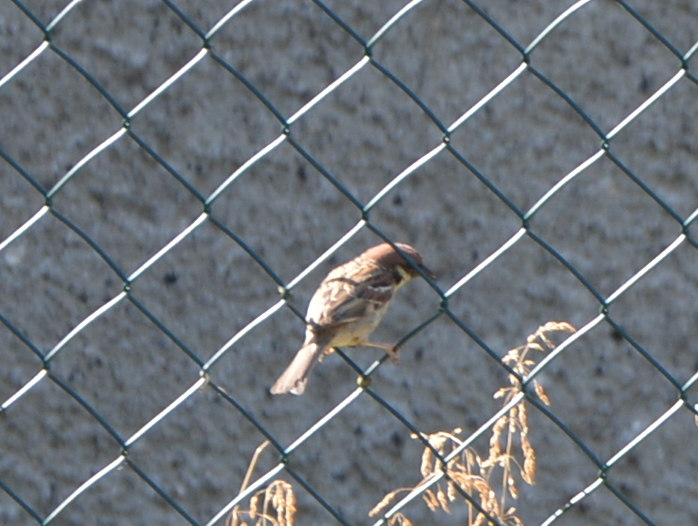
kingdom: Animalia
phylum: Chordata
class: Aves
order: Passeriformes
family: Passeridae
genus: Passer
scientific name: Passer montanus
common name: Eurasian tree sparrow
